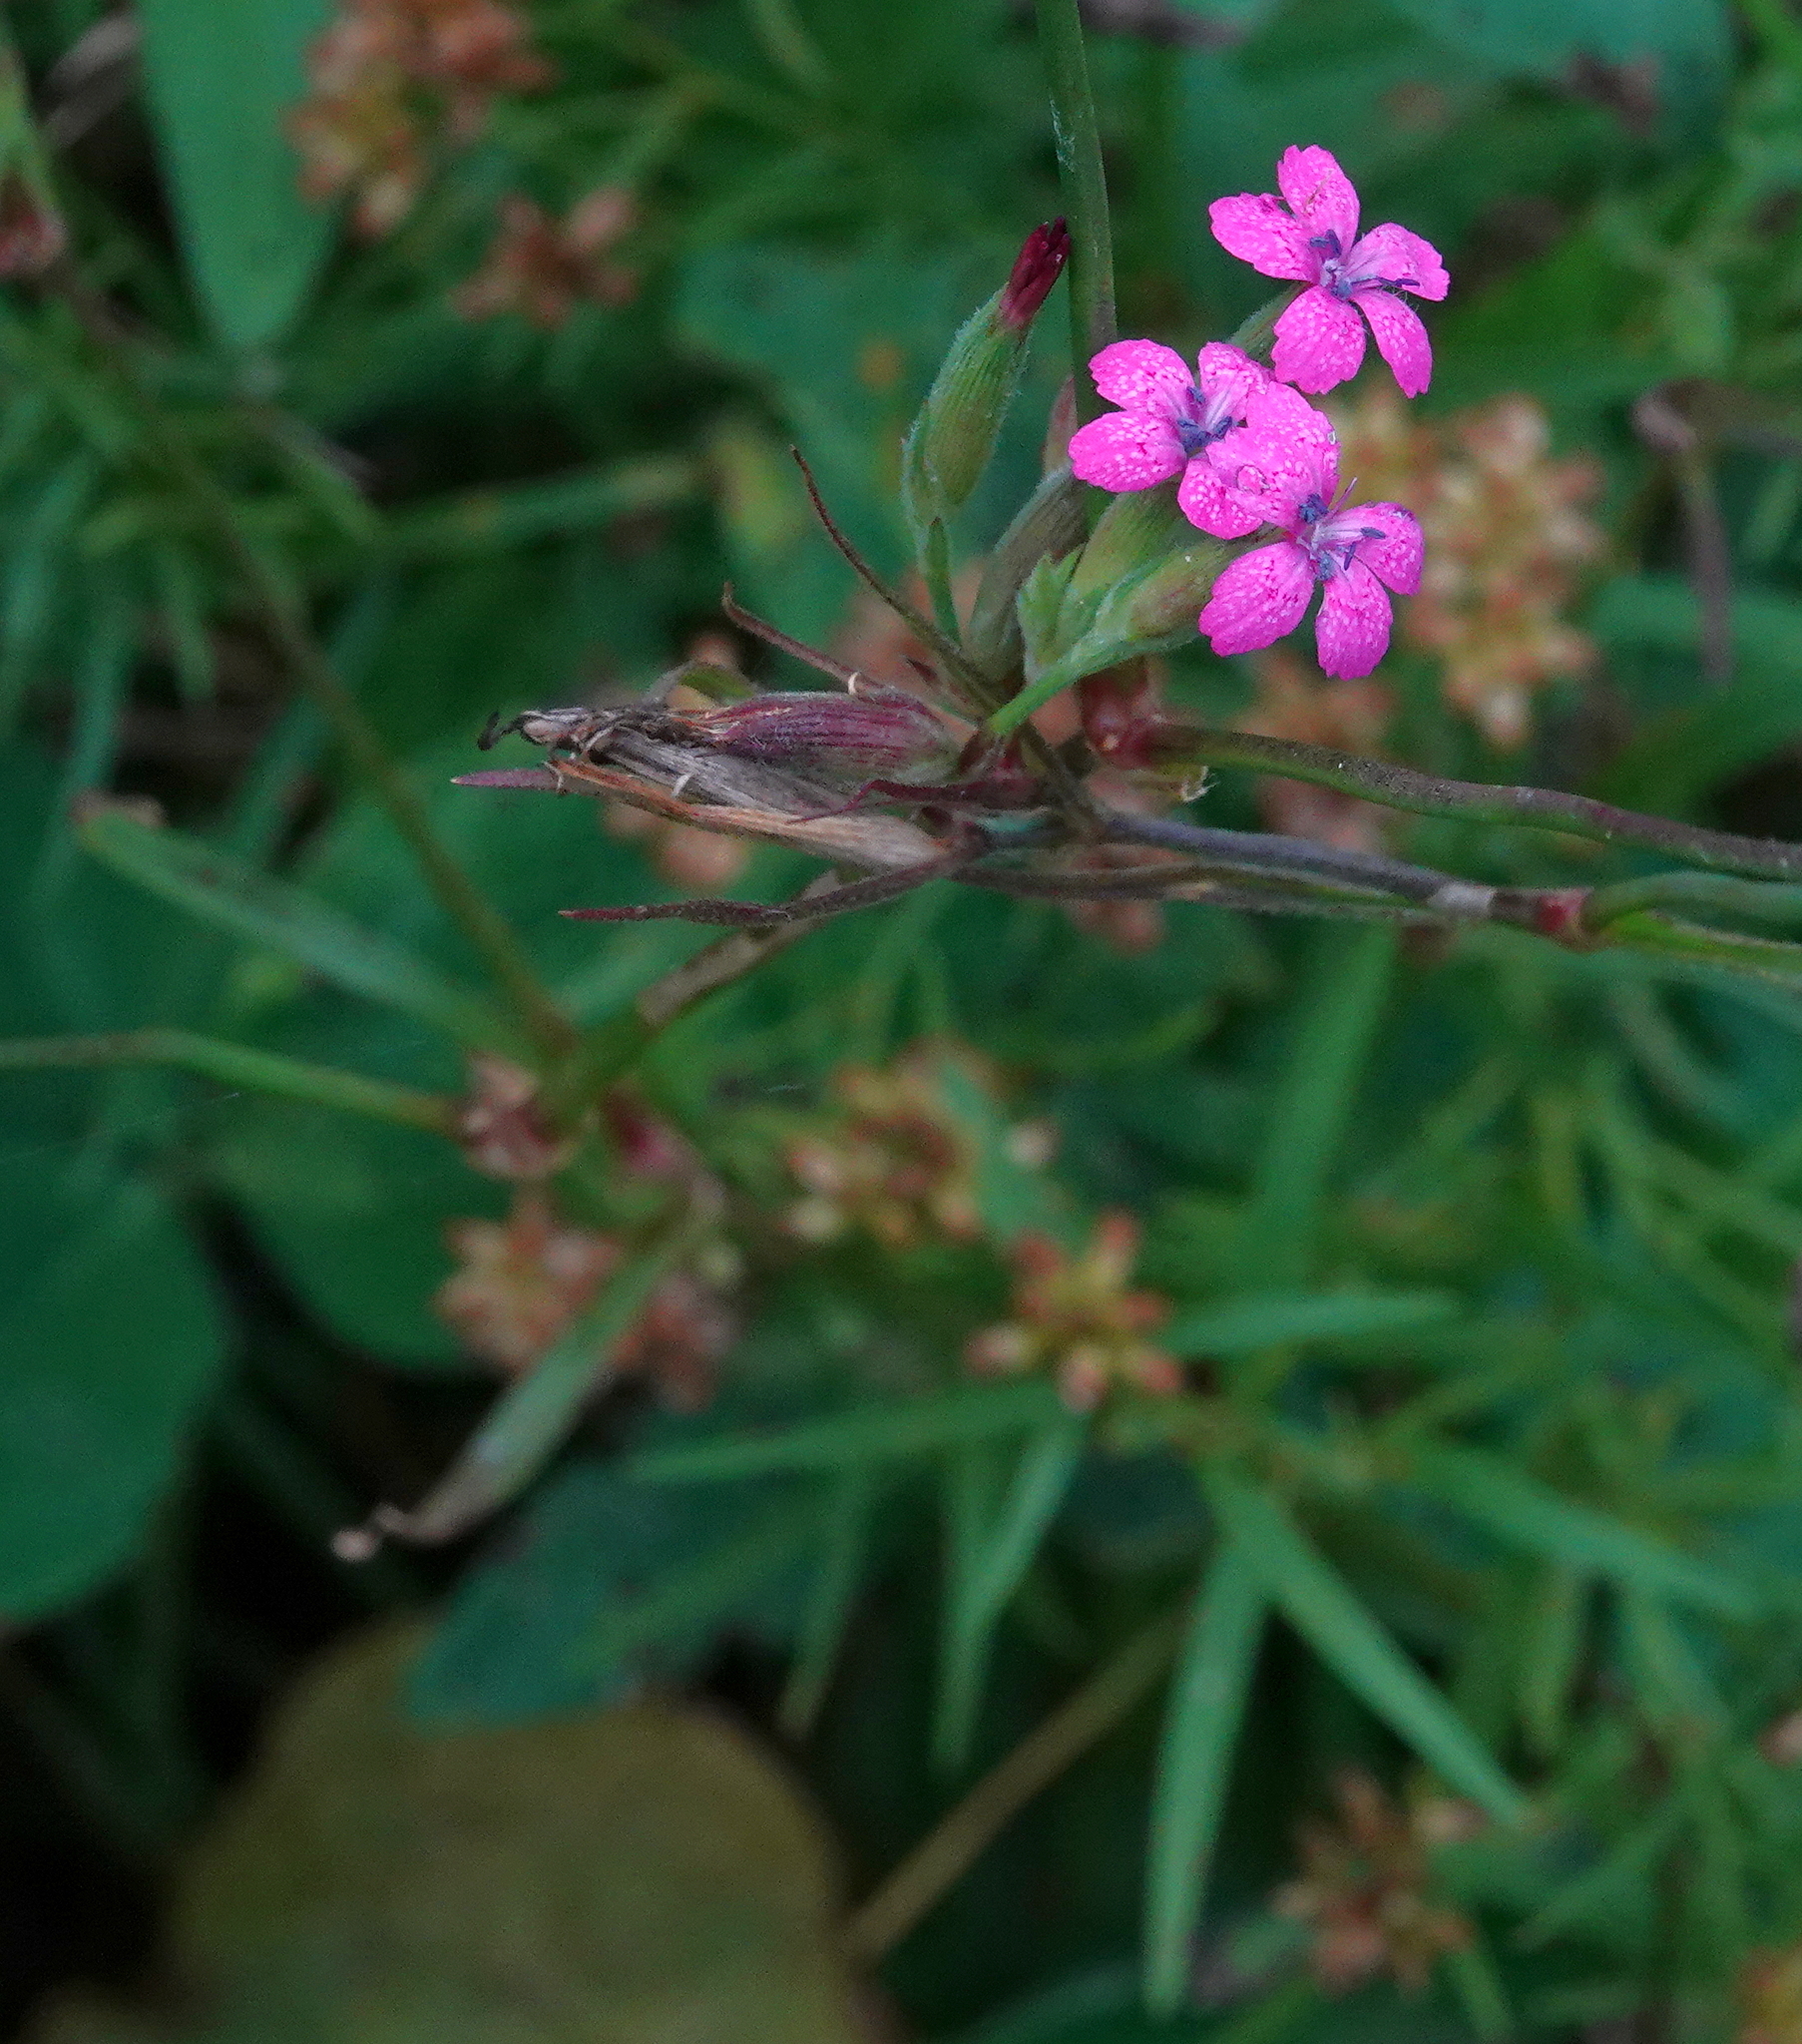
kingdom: Plantae
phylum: Tracheophyta
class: Magnoliopsida
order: Caryophyllales
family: Caryophyllaceae
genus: Dianthus
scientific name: Dianthus armeria
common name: Deptford pink
